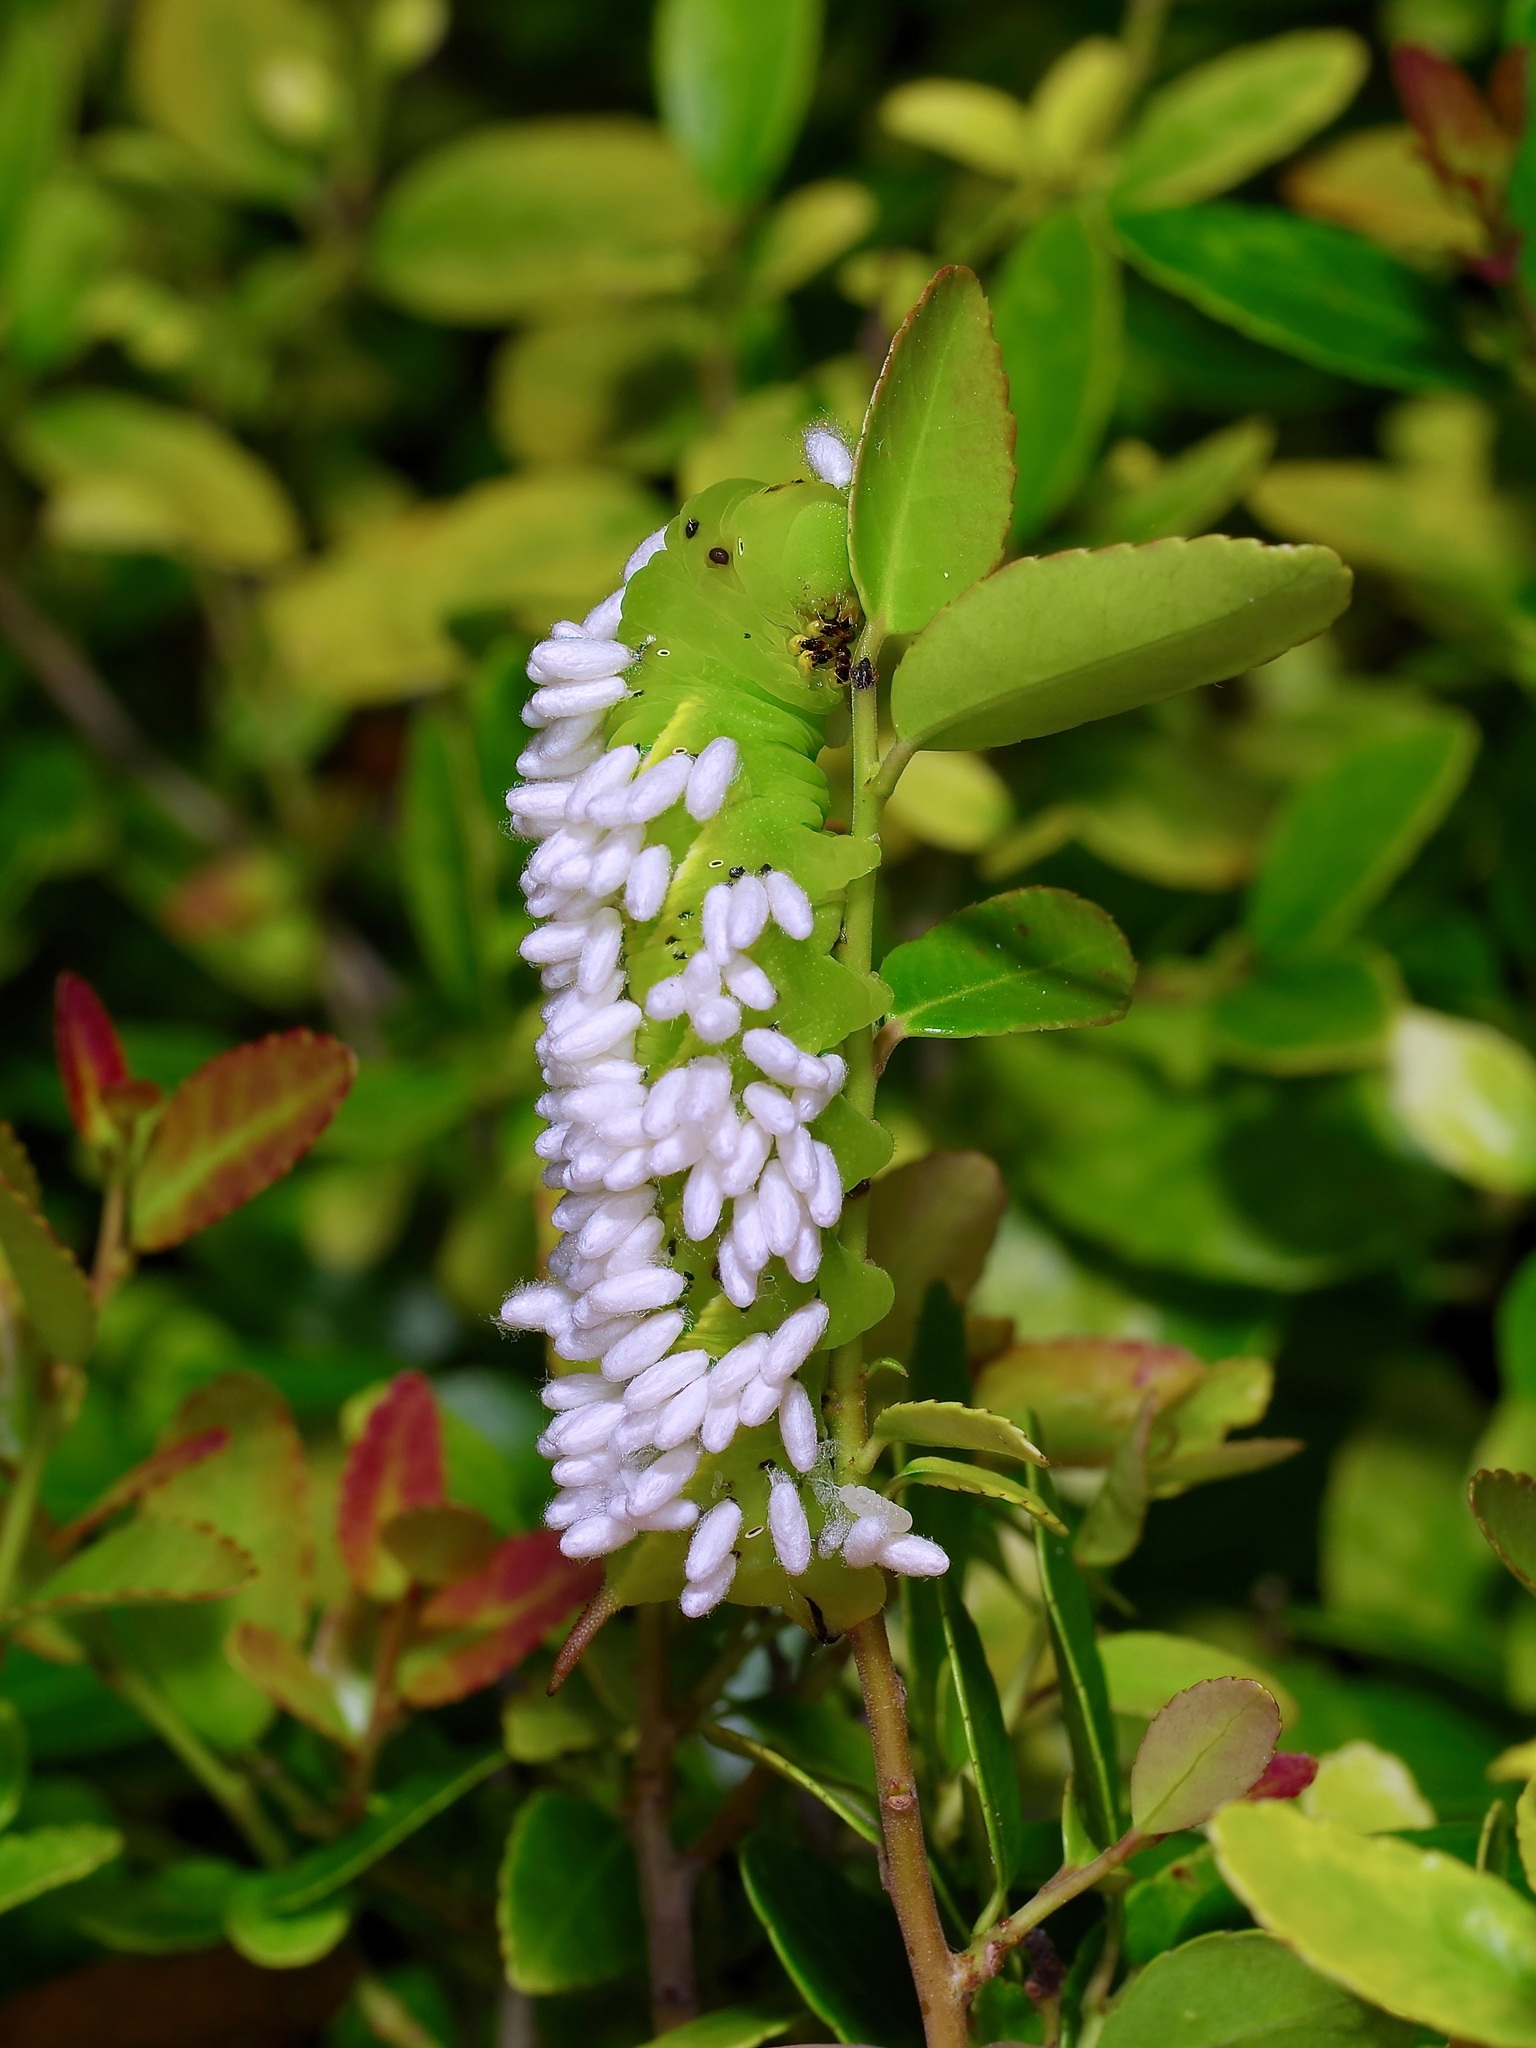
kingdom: Animalia
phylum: Arthropoda
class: Insecta
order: Hymenoptera
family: Braconidae
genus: Cotesia
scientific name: Cotesia congregata
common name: Hornworm parasitoid wasp
